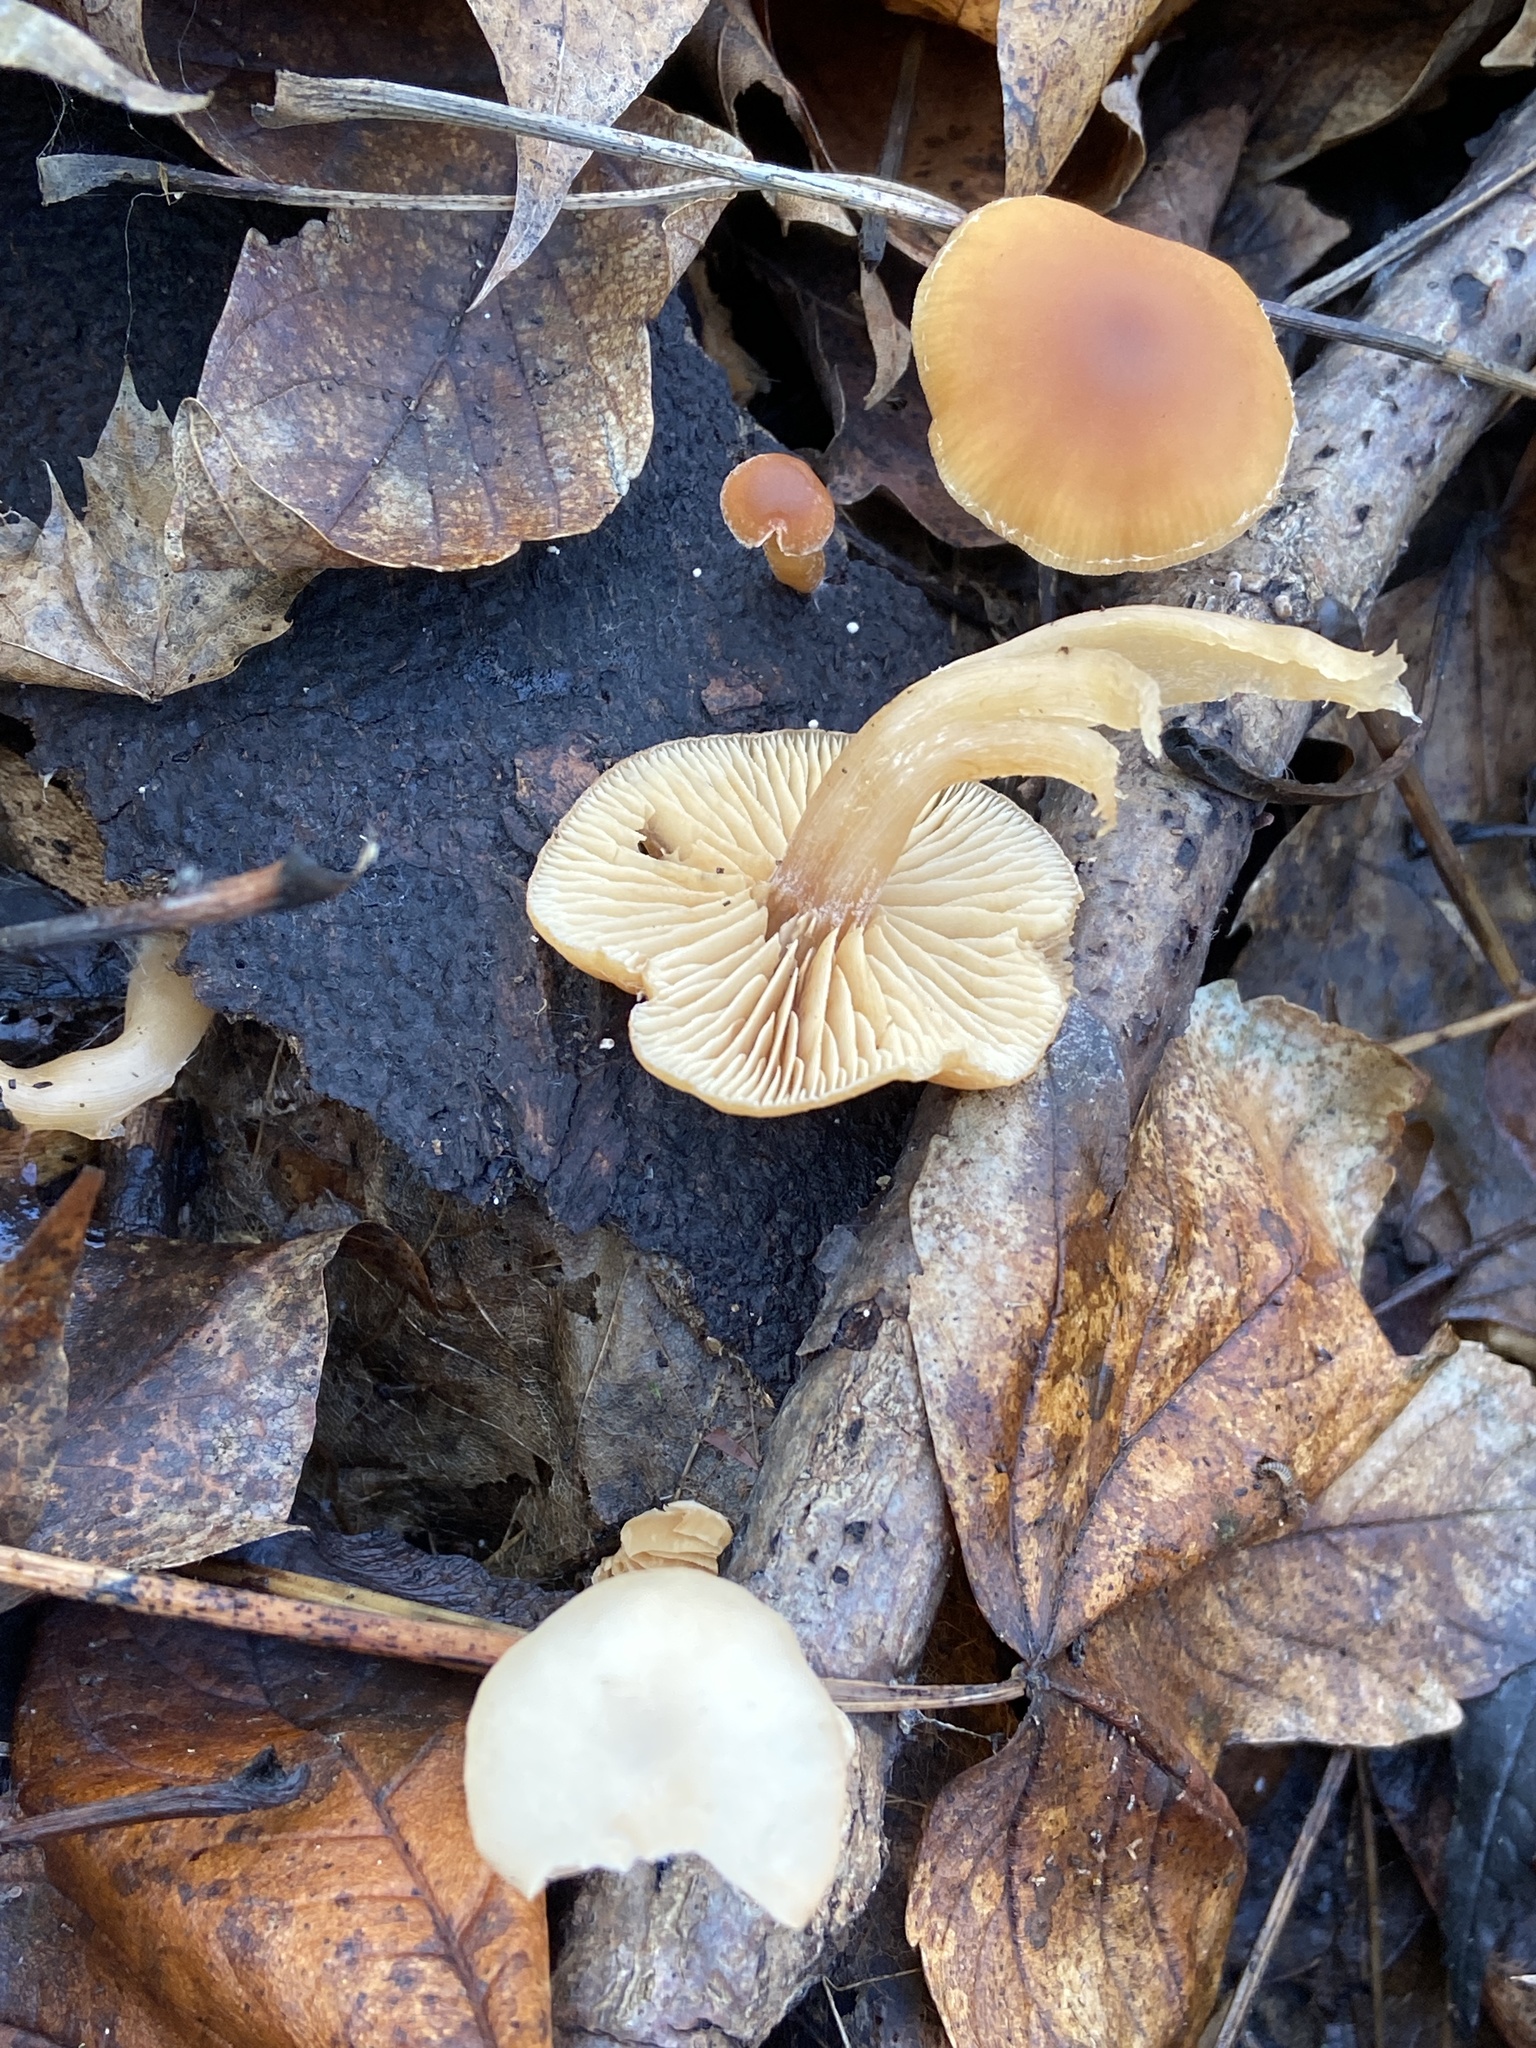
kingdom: Fungi
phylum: Basidiomycota
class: Agaricomycetes
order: Agaricales
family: Tubariaceae
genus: Tubaria
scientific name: Tubaria furfuracea
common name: Scurfy twiglet
